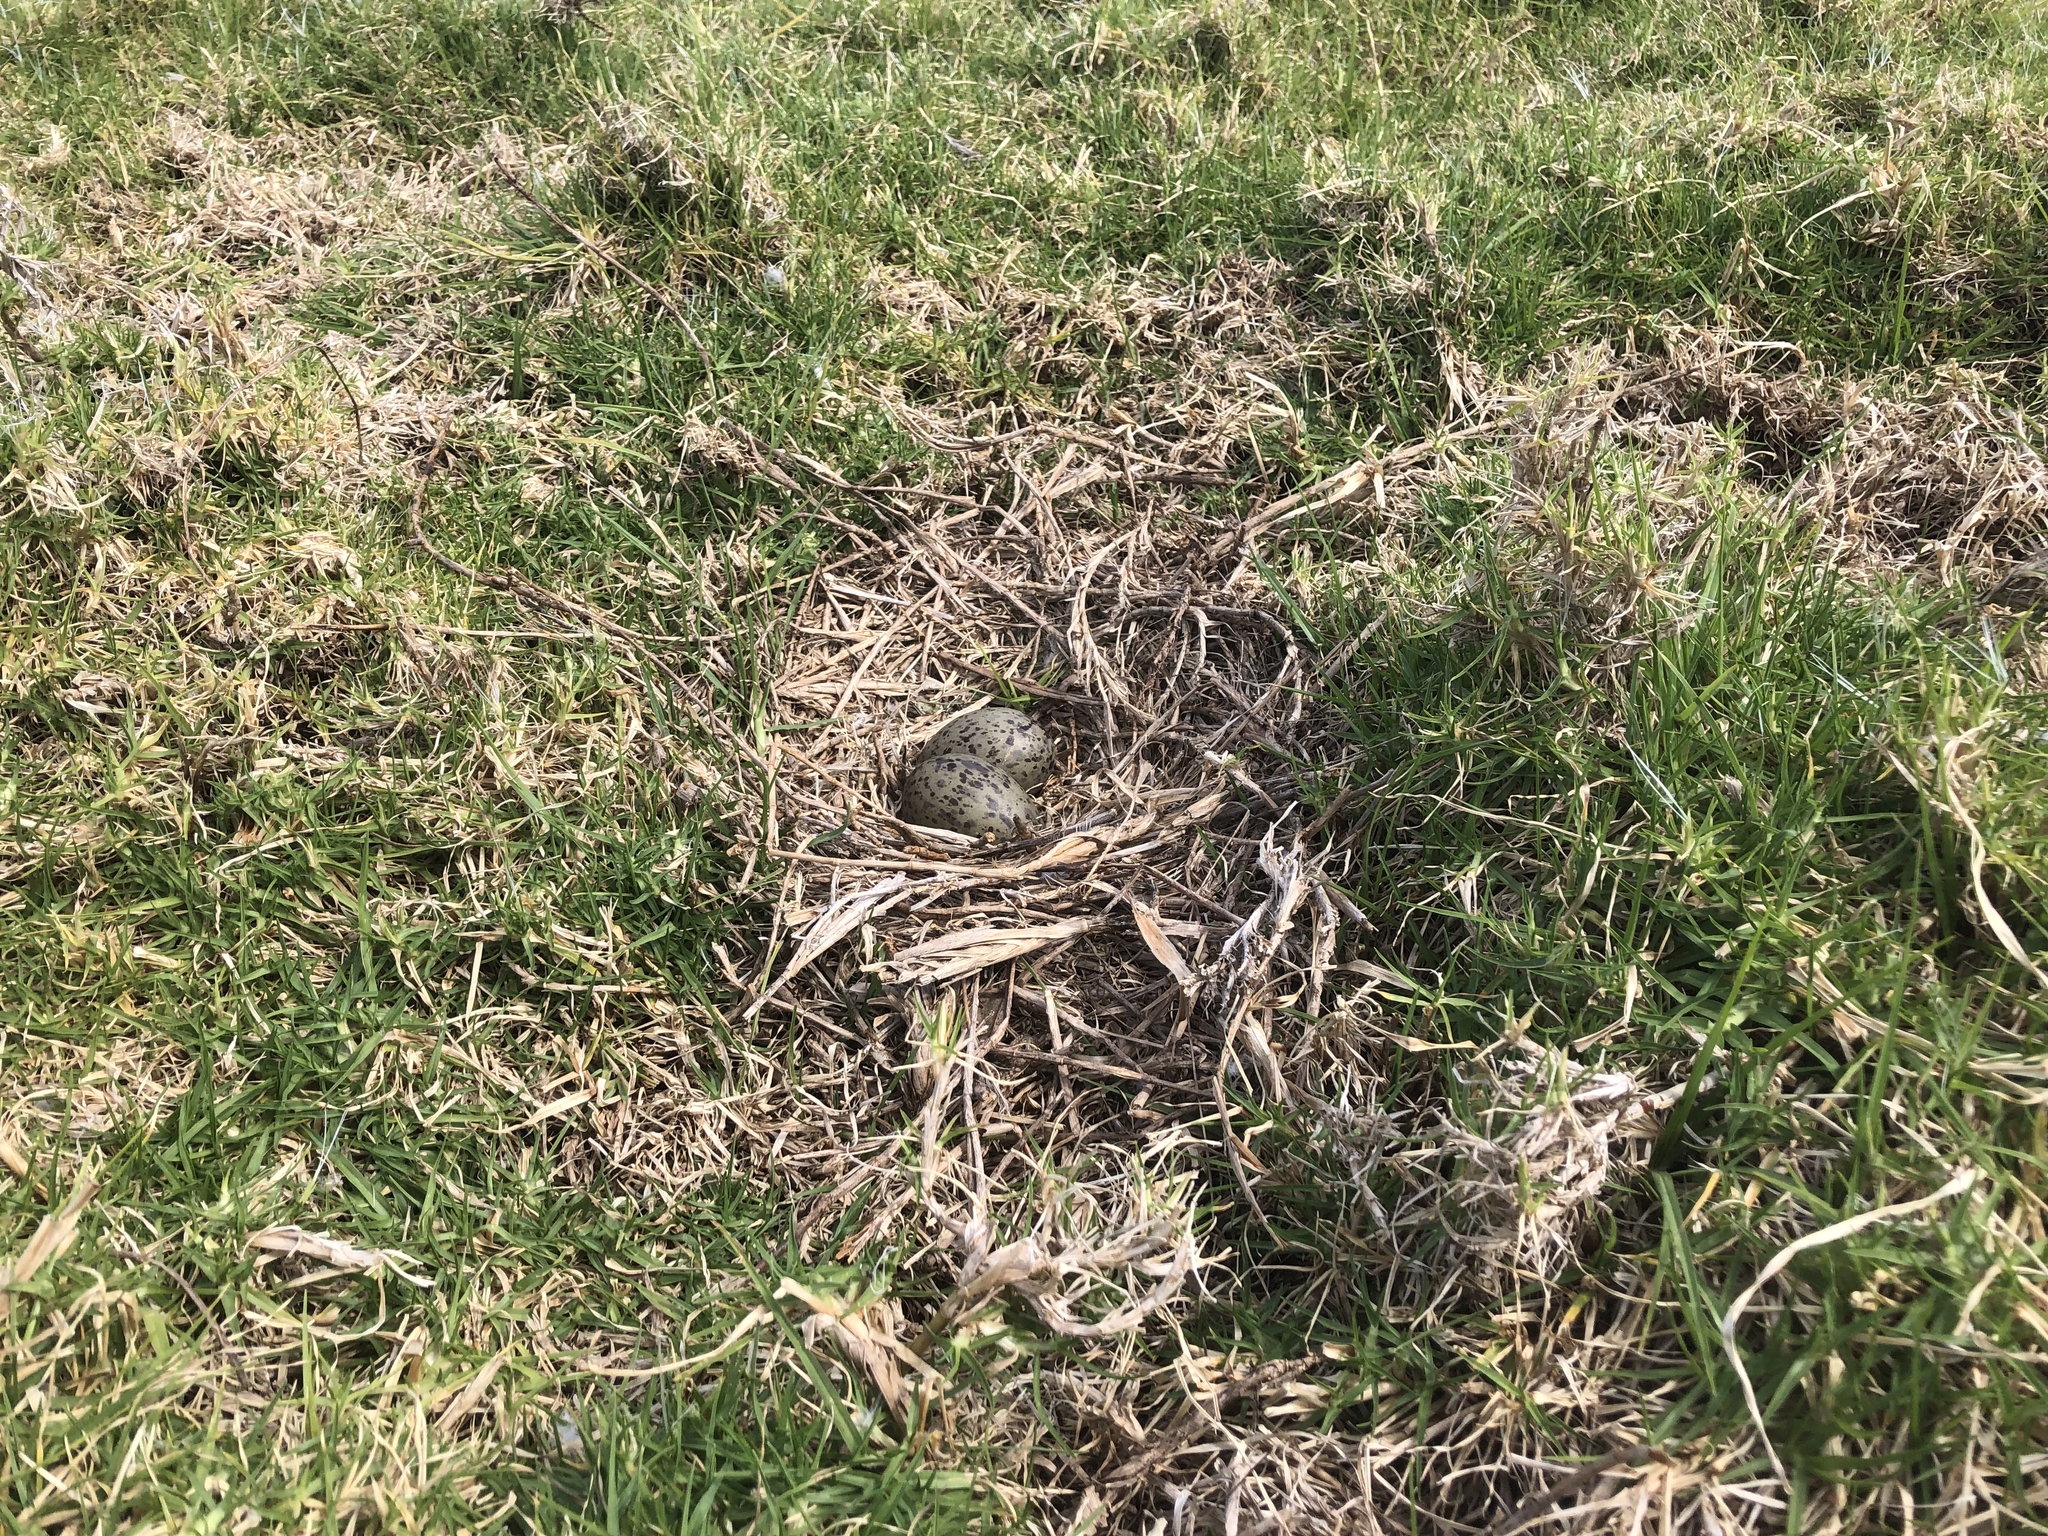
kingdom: Animalia
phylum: Chordata
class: Aves
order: Charadriiformes
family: Laridae
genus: Larus
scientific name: Larus dominicanus
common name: Kelp gull
